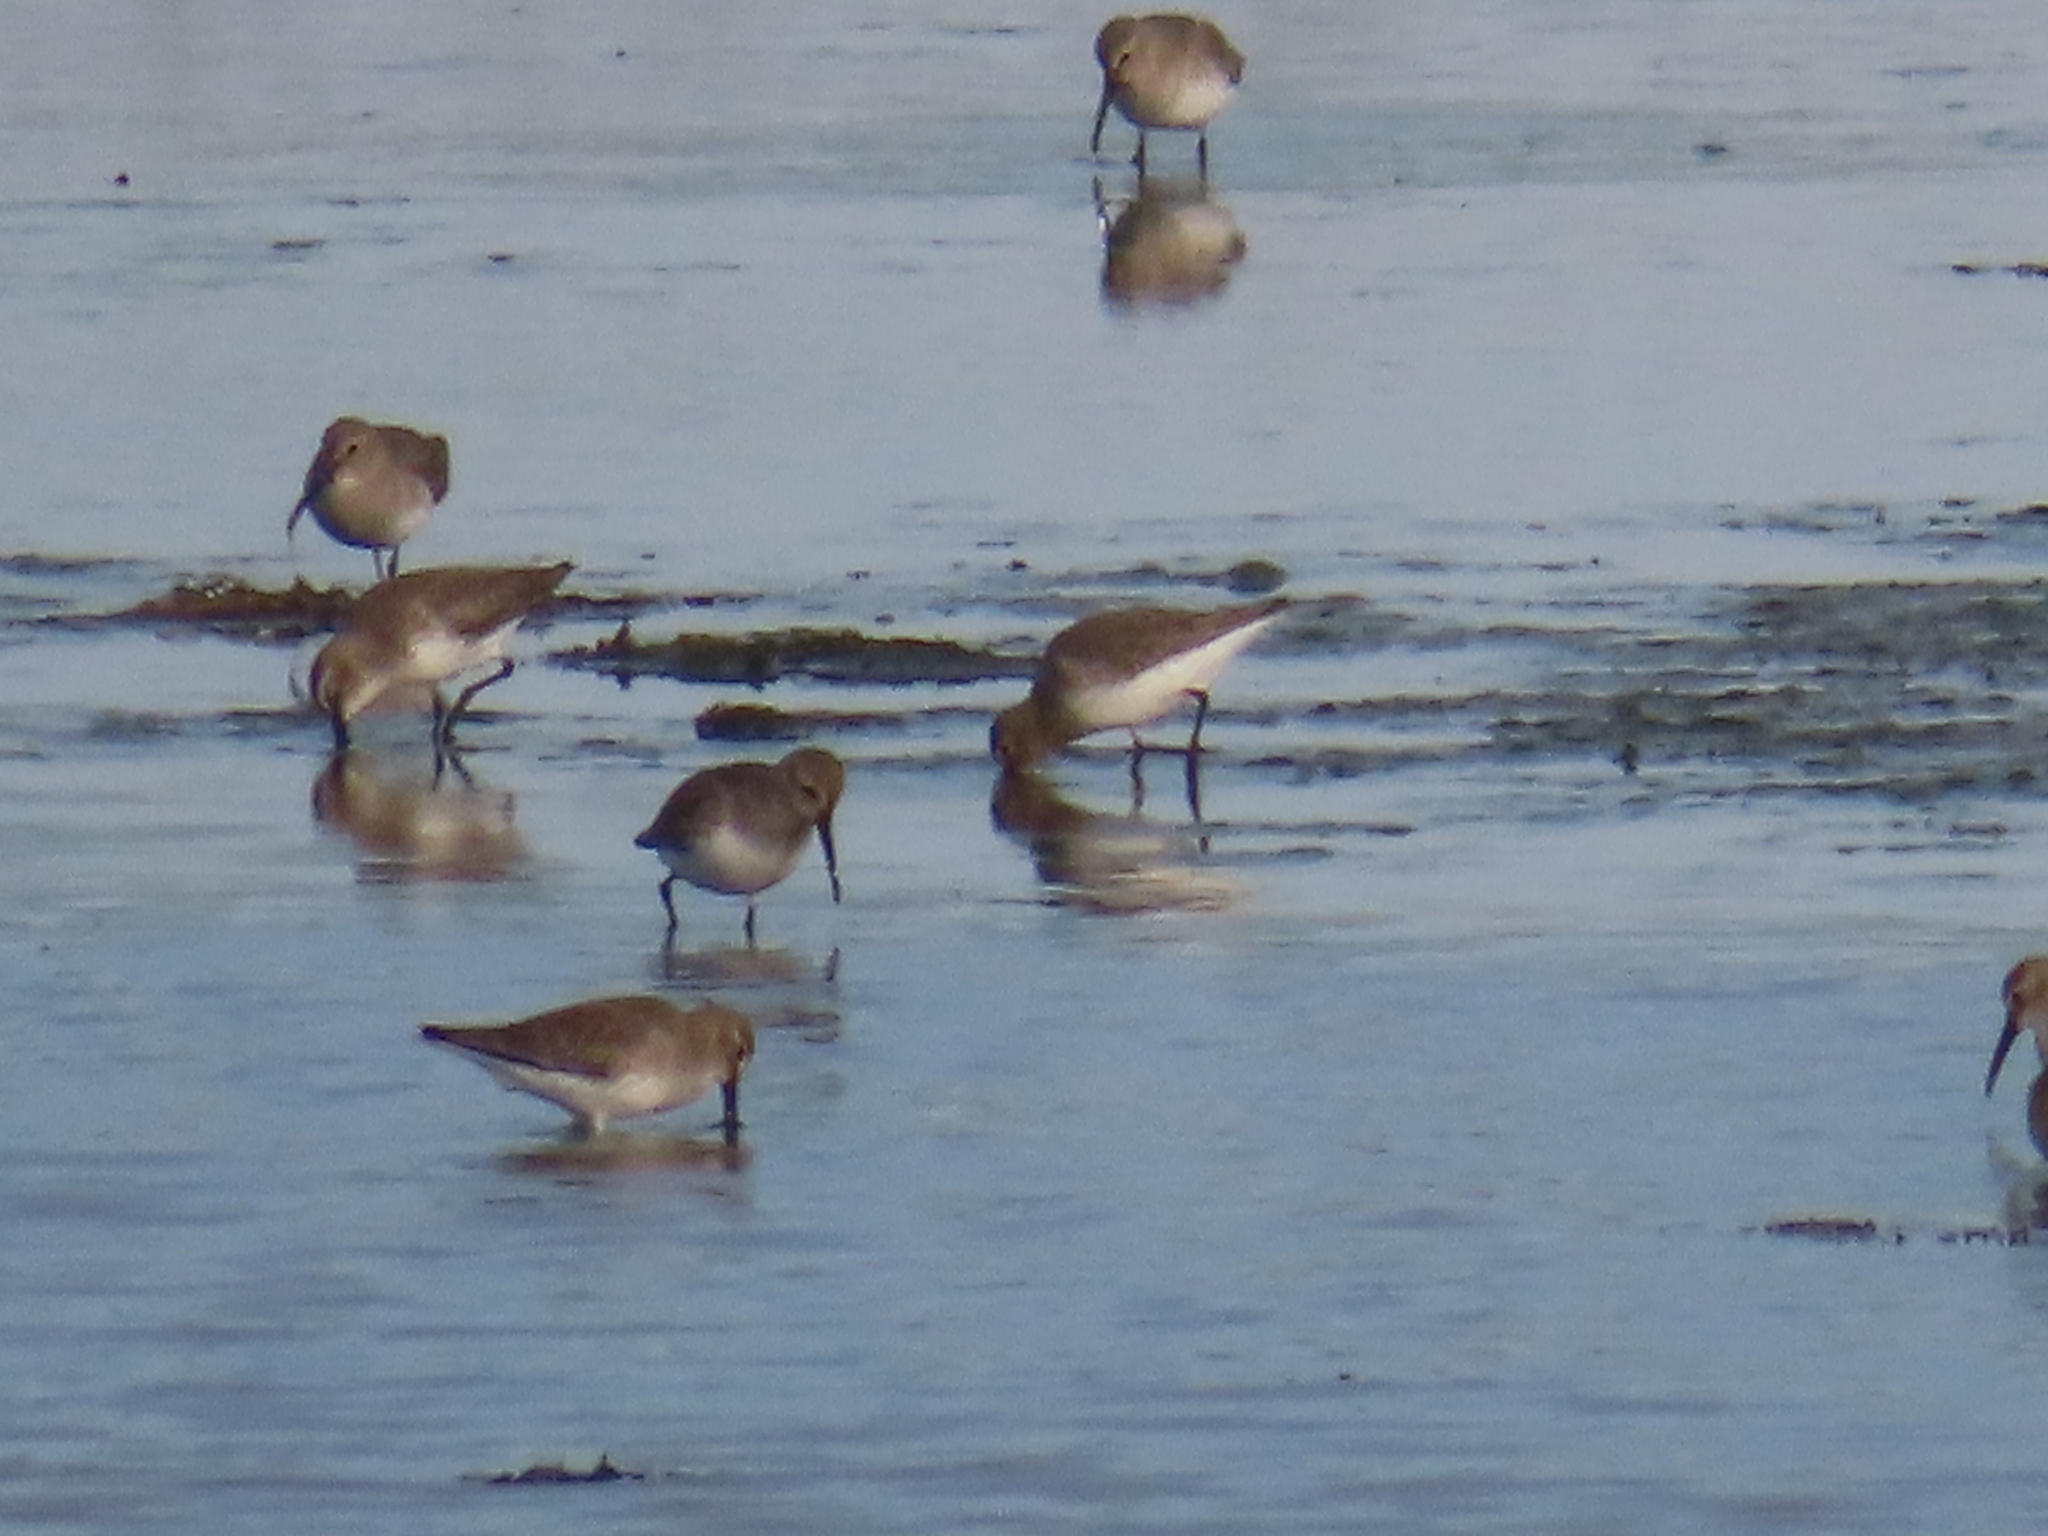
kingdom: Animalia
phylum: Chordata
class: Aves
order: Charadriiformes
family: Scolopacidae
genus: Calidris
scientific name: Calidris alpina
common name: Dunlin
